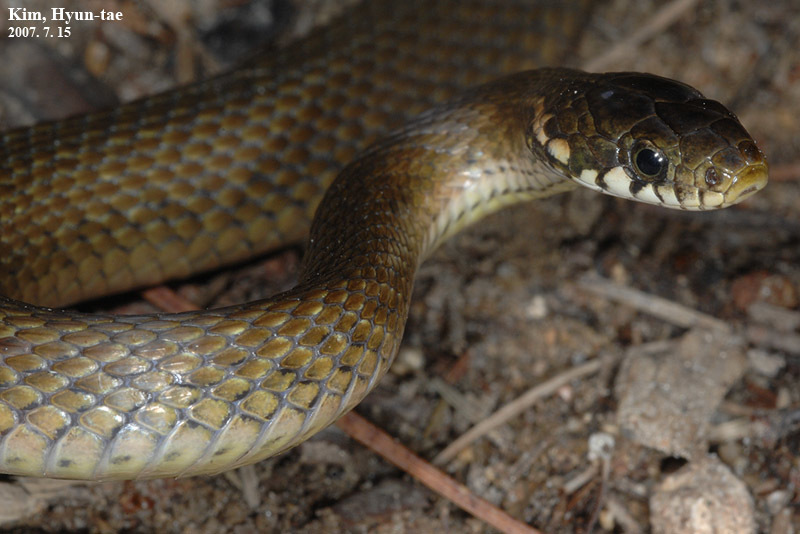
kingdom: Animalia
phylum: Chordata
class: Squamata
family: Colubridae
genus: Hebius
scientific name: Hebius vibakari
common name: Japanese keelback
